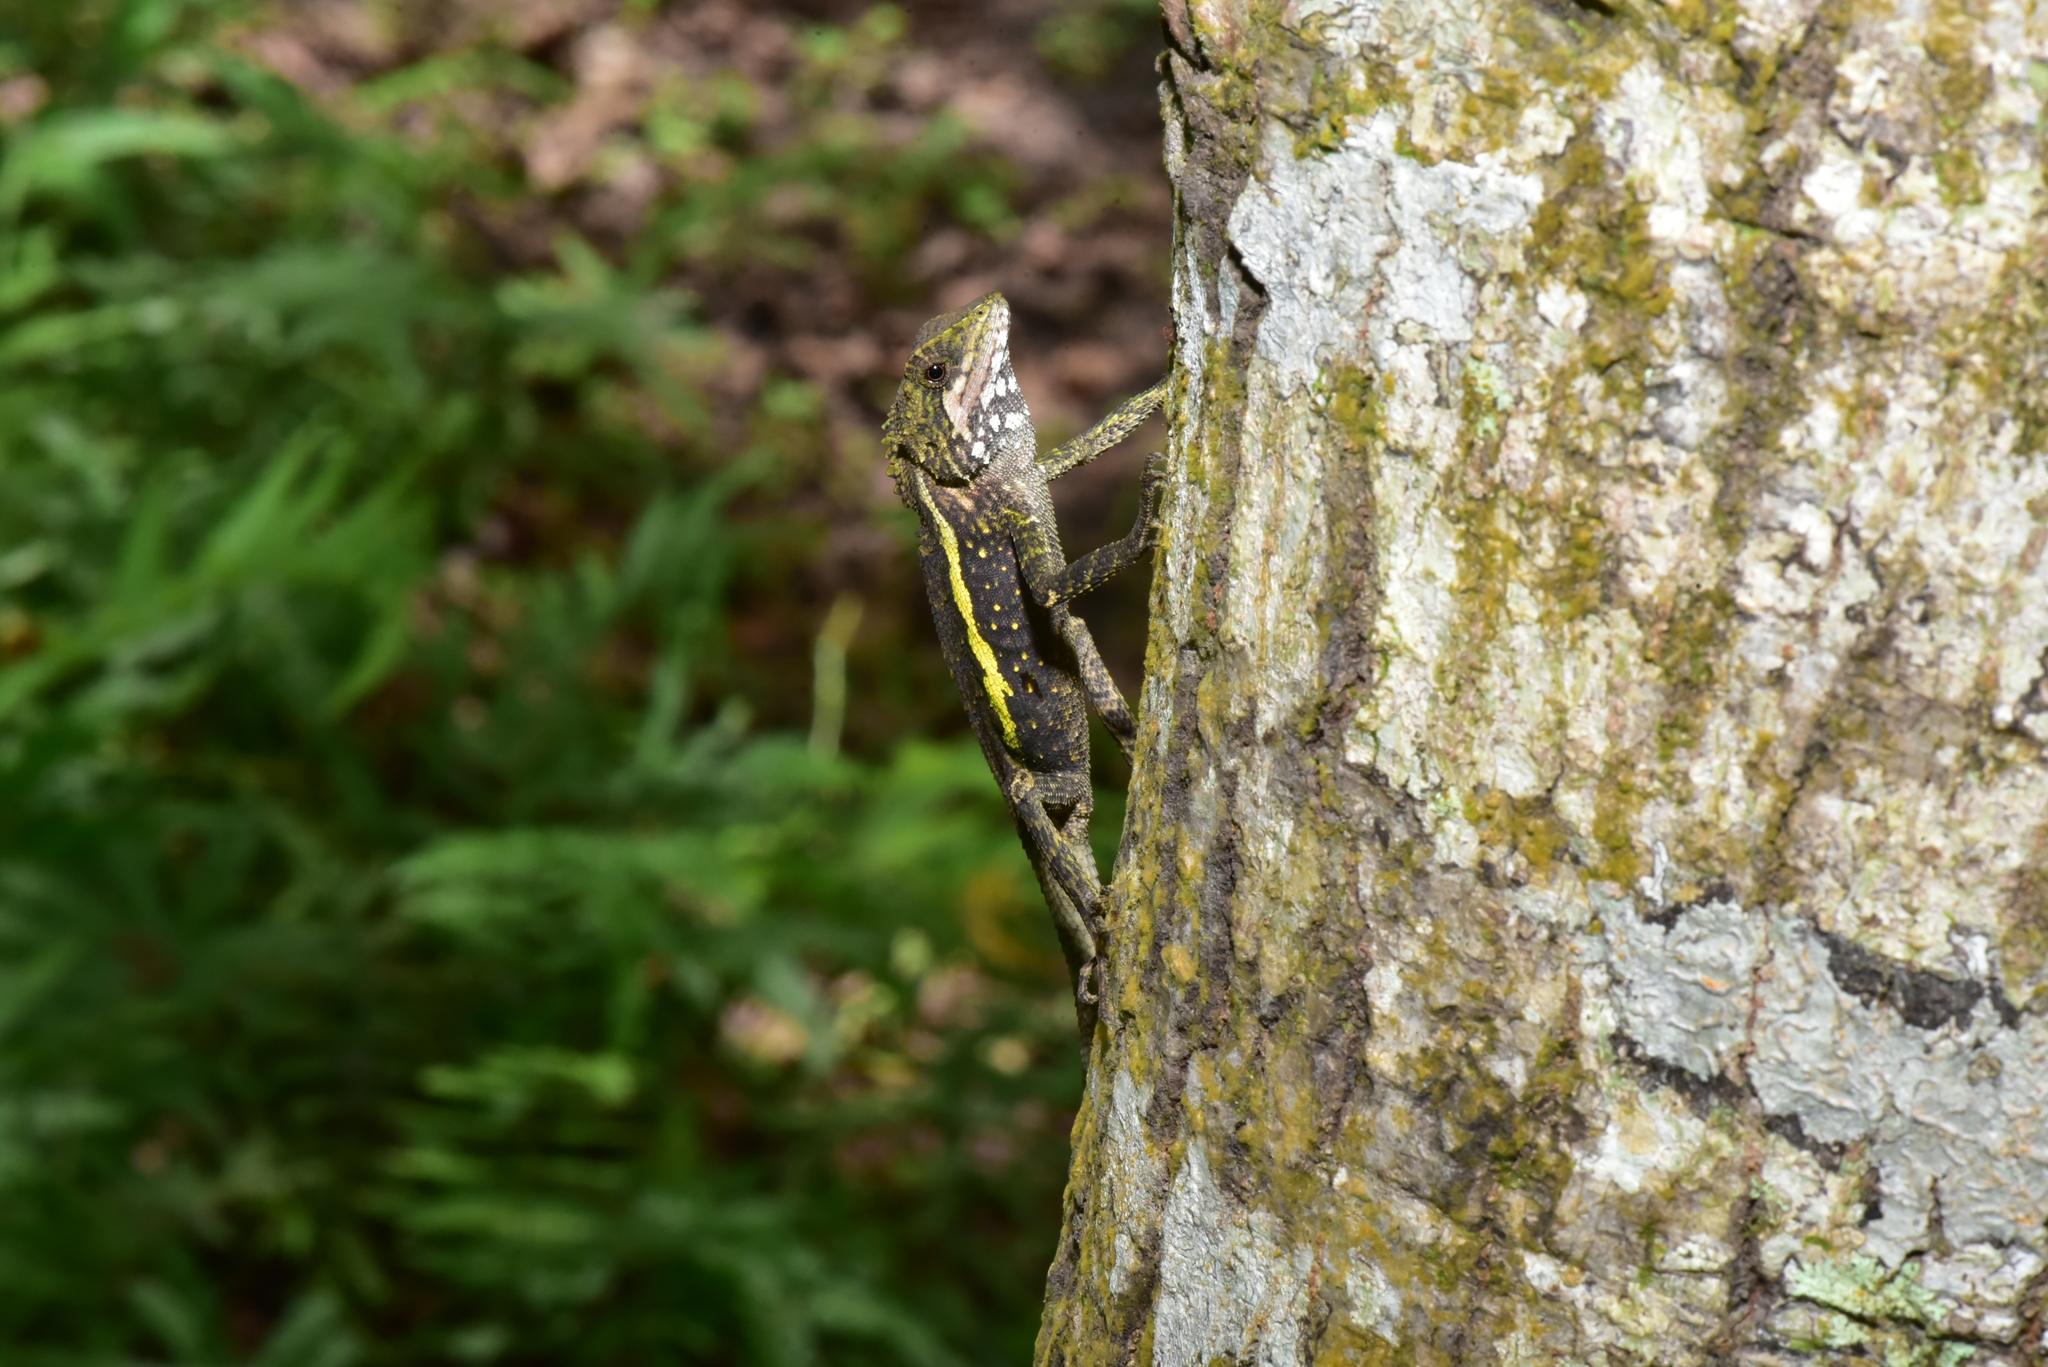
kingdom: Animalia
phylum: Chordata
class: Squamata
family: Agamidae
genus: Diploderma
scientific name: Diploderma swinhonis
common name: Taiwan japalure
